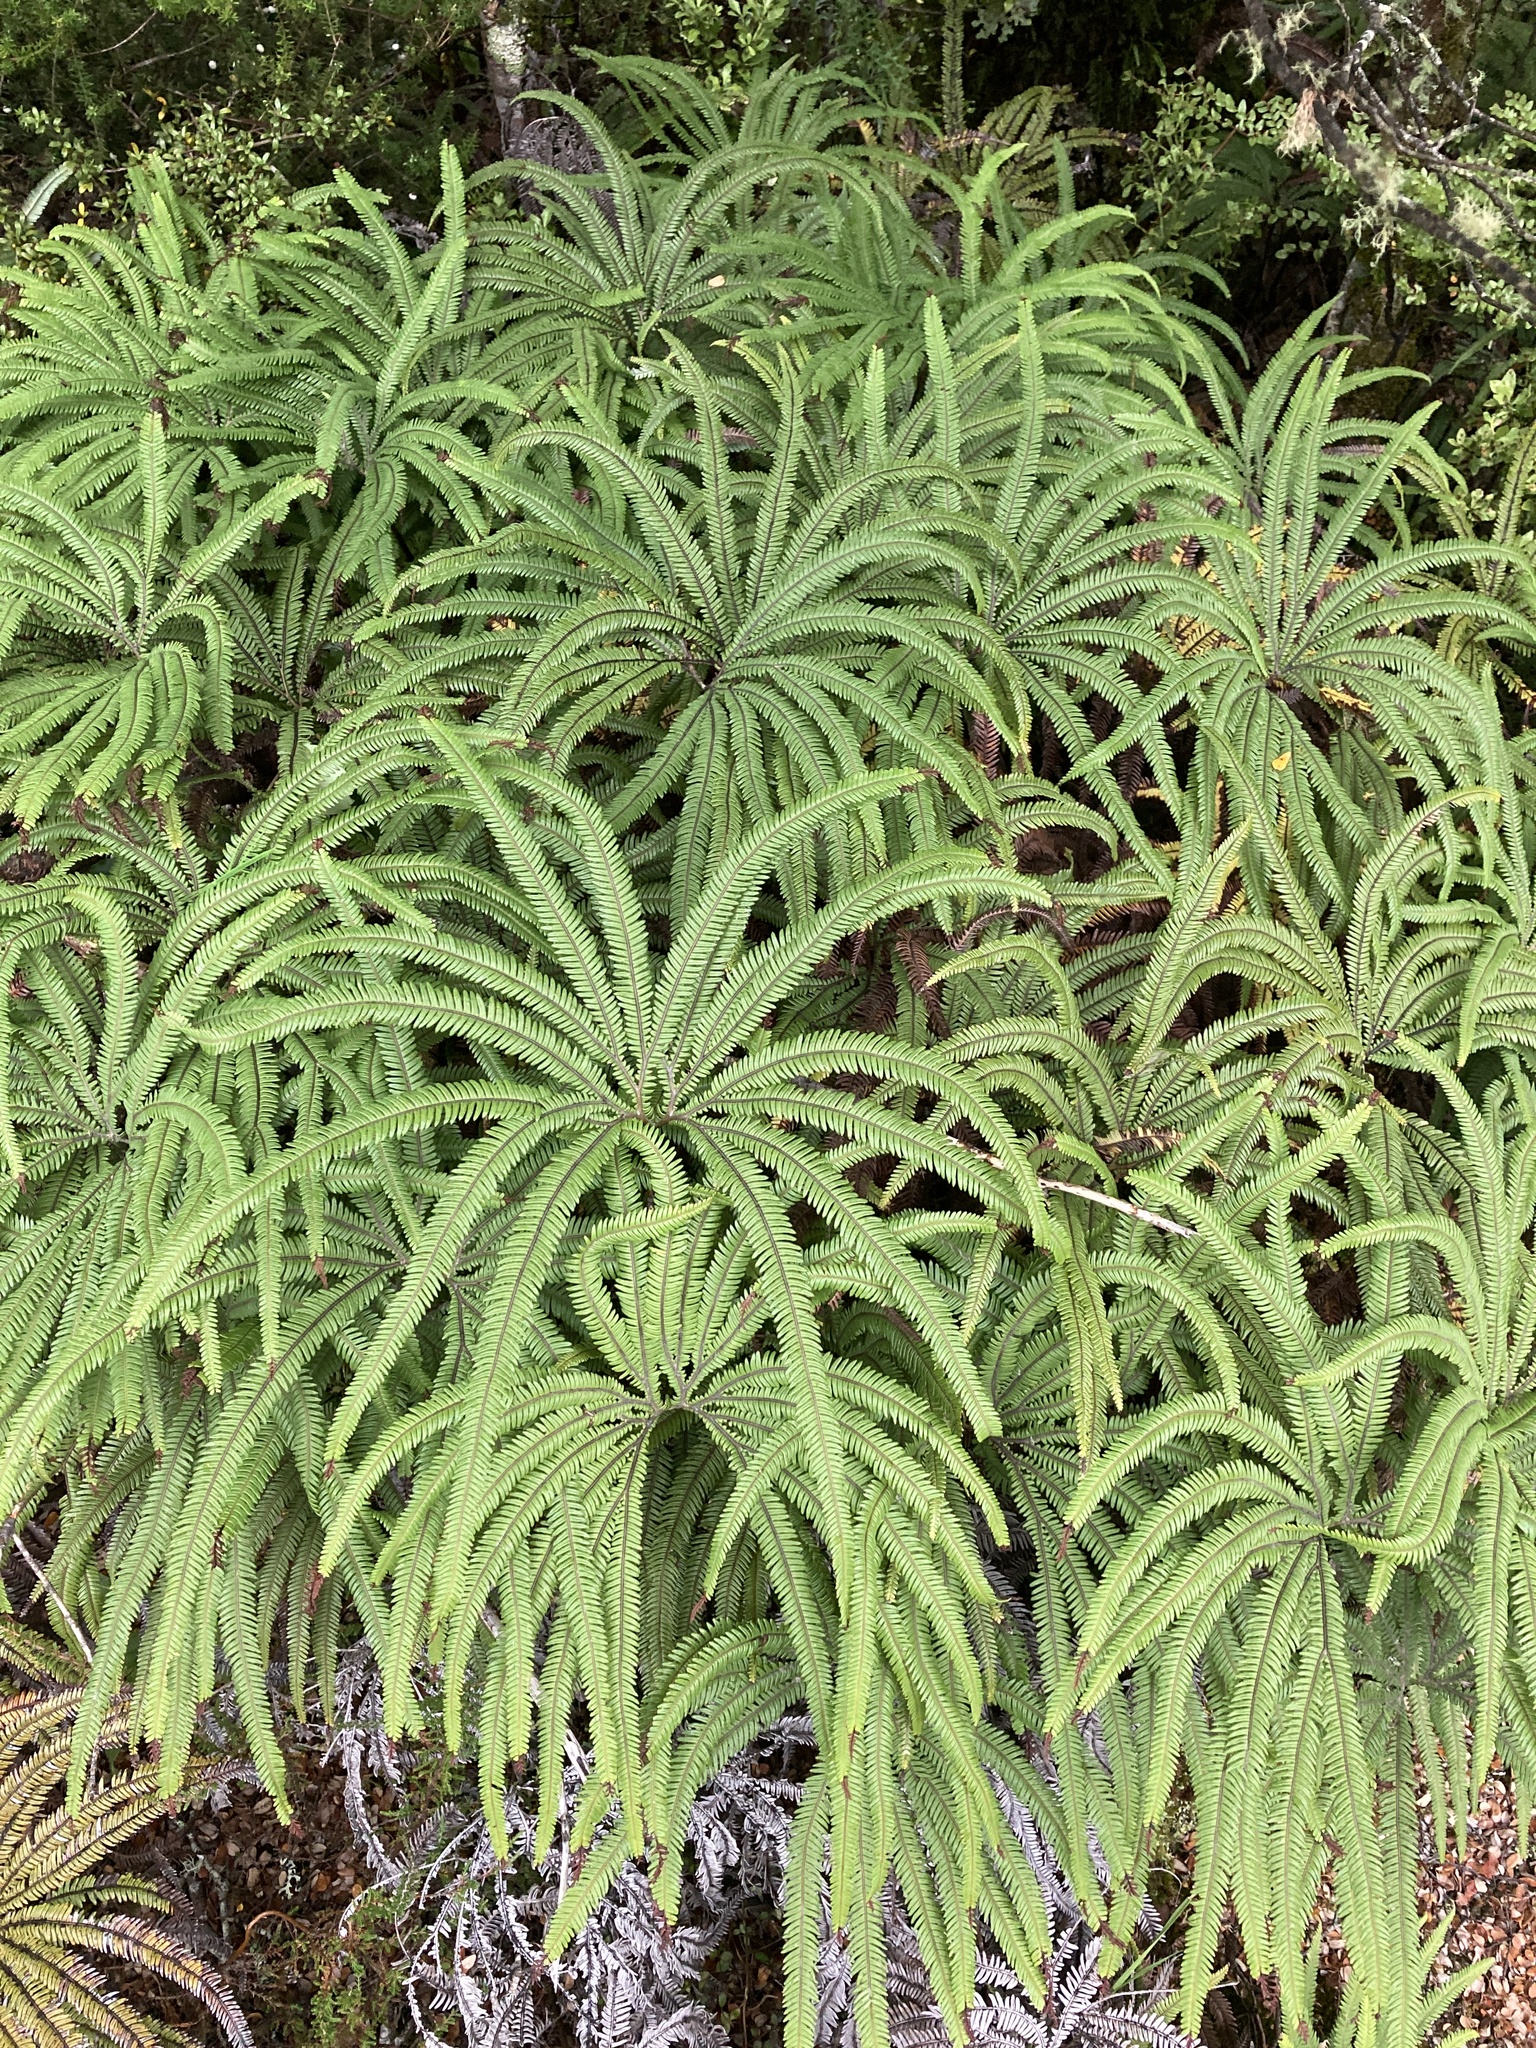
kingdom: Plantae
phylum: Tracheophyta
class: Polypodiopsida
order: Gleicheniales
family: Gleicheniaceae
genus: Sticherus
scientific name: Sticherus cunninghamii
